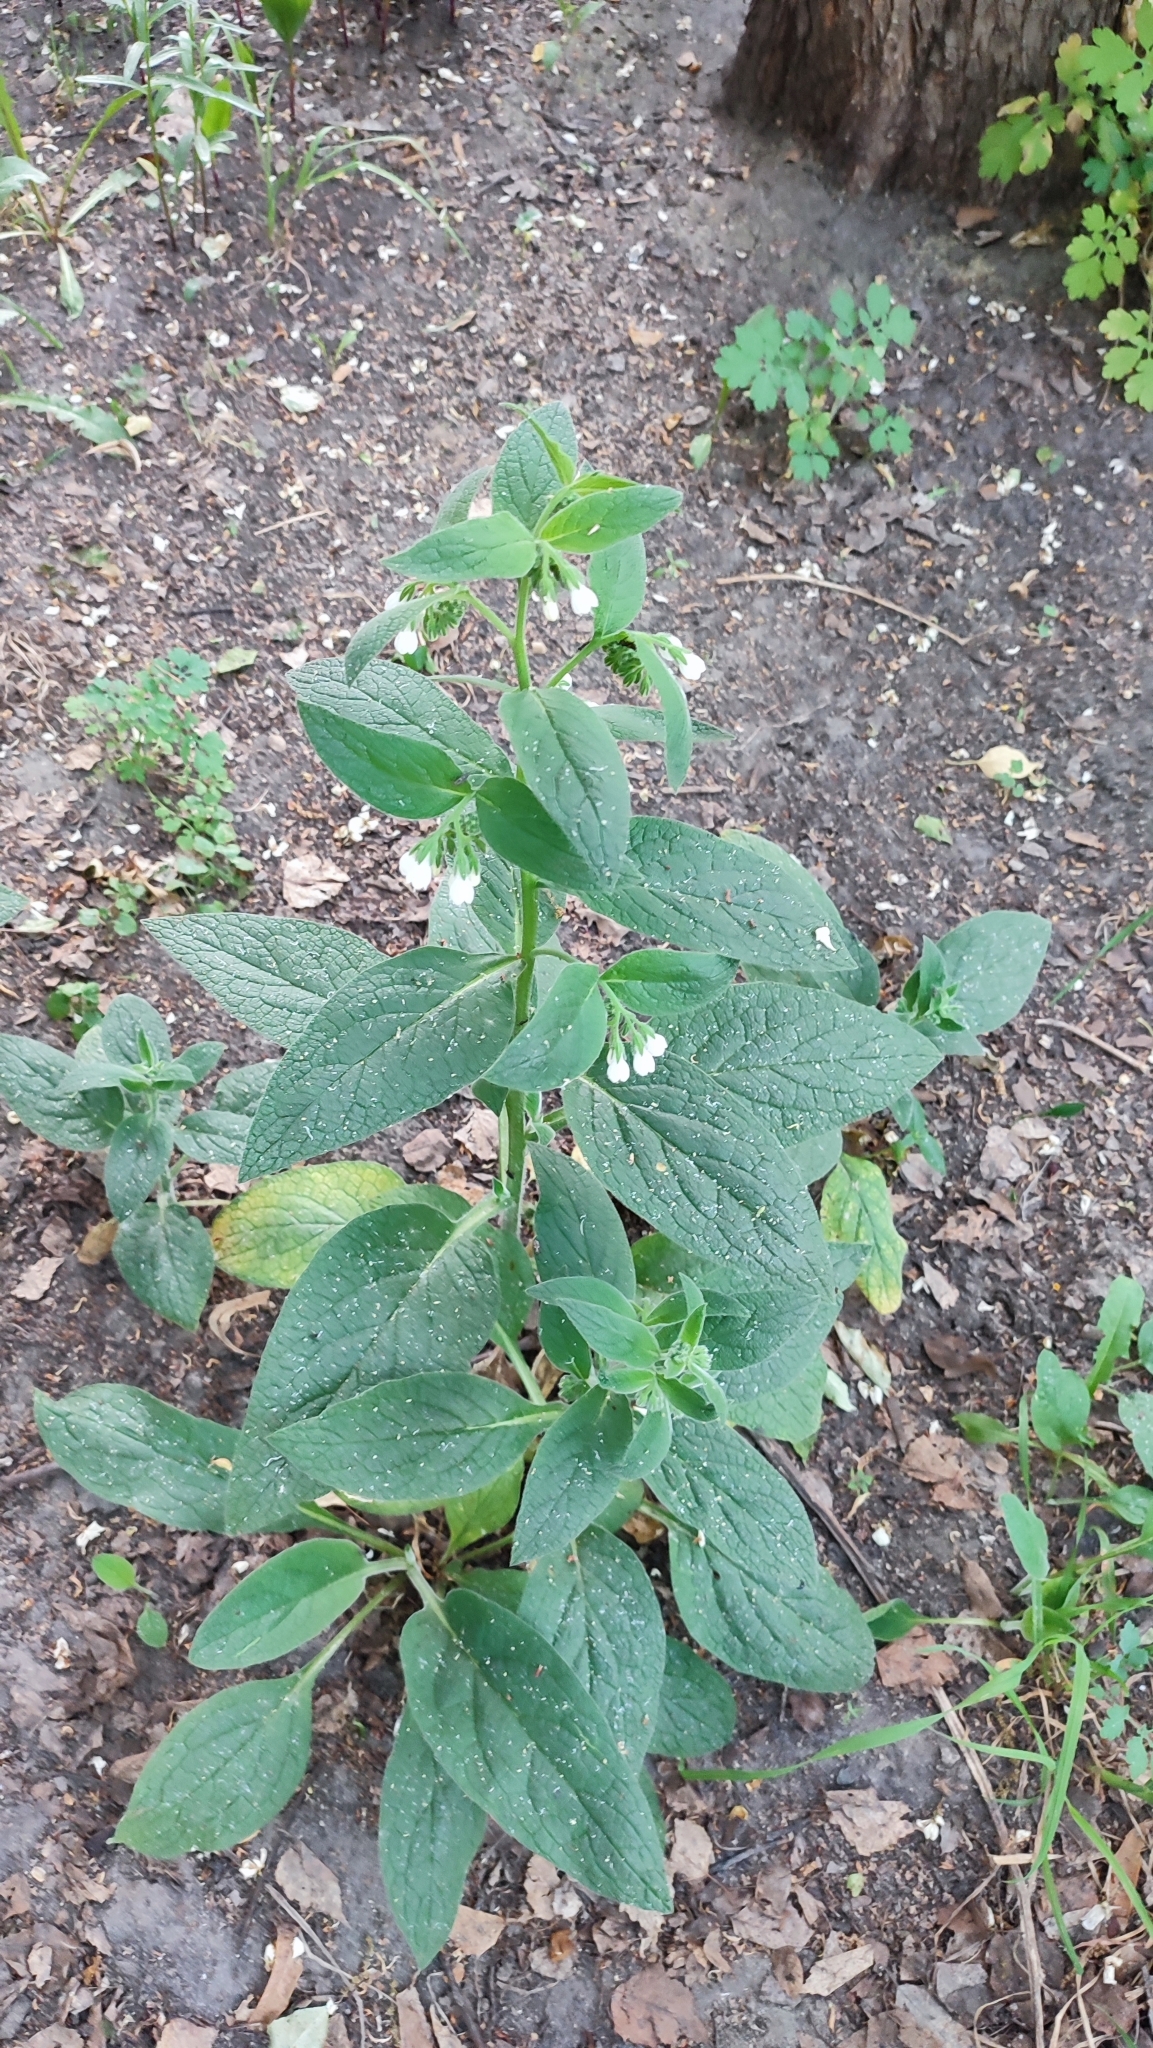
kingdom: Plantae
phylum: Tracheophyta
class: Magnoliopsida
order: Boraginales
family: Boraginaceae
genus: Symphytum
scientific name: Symphytum caucasicum
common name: Caucasian comfrey
